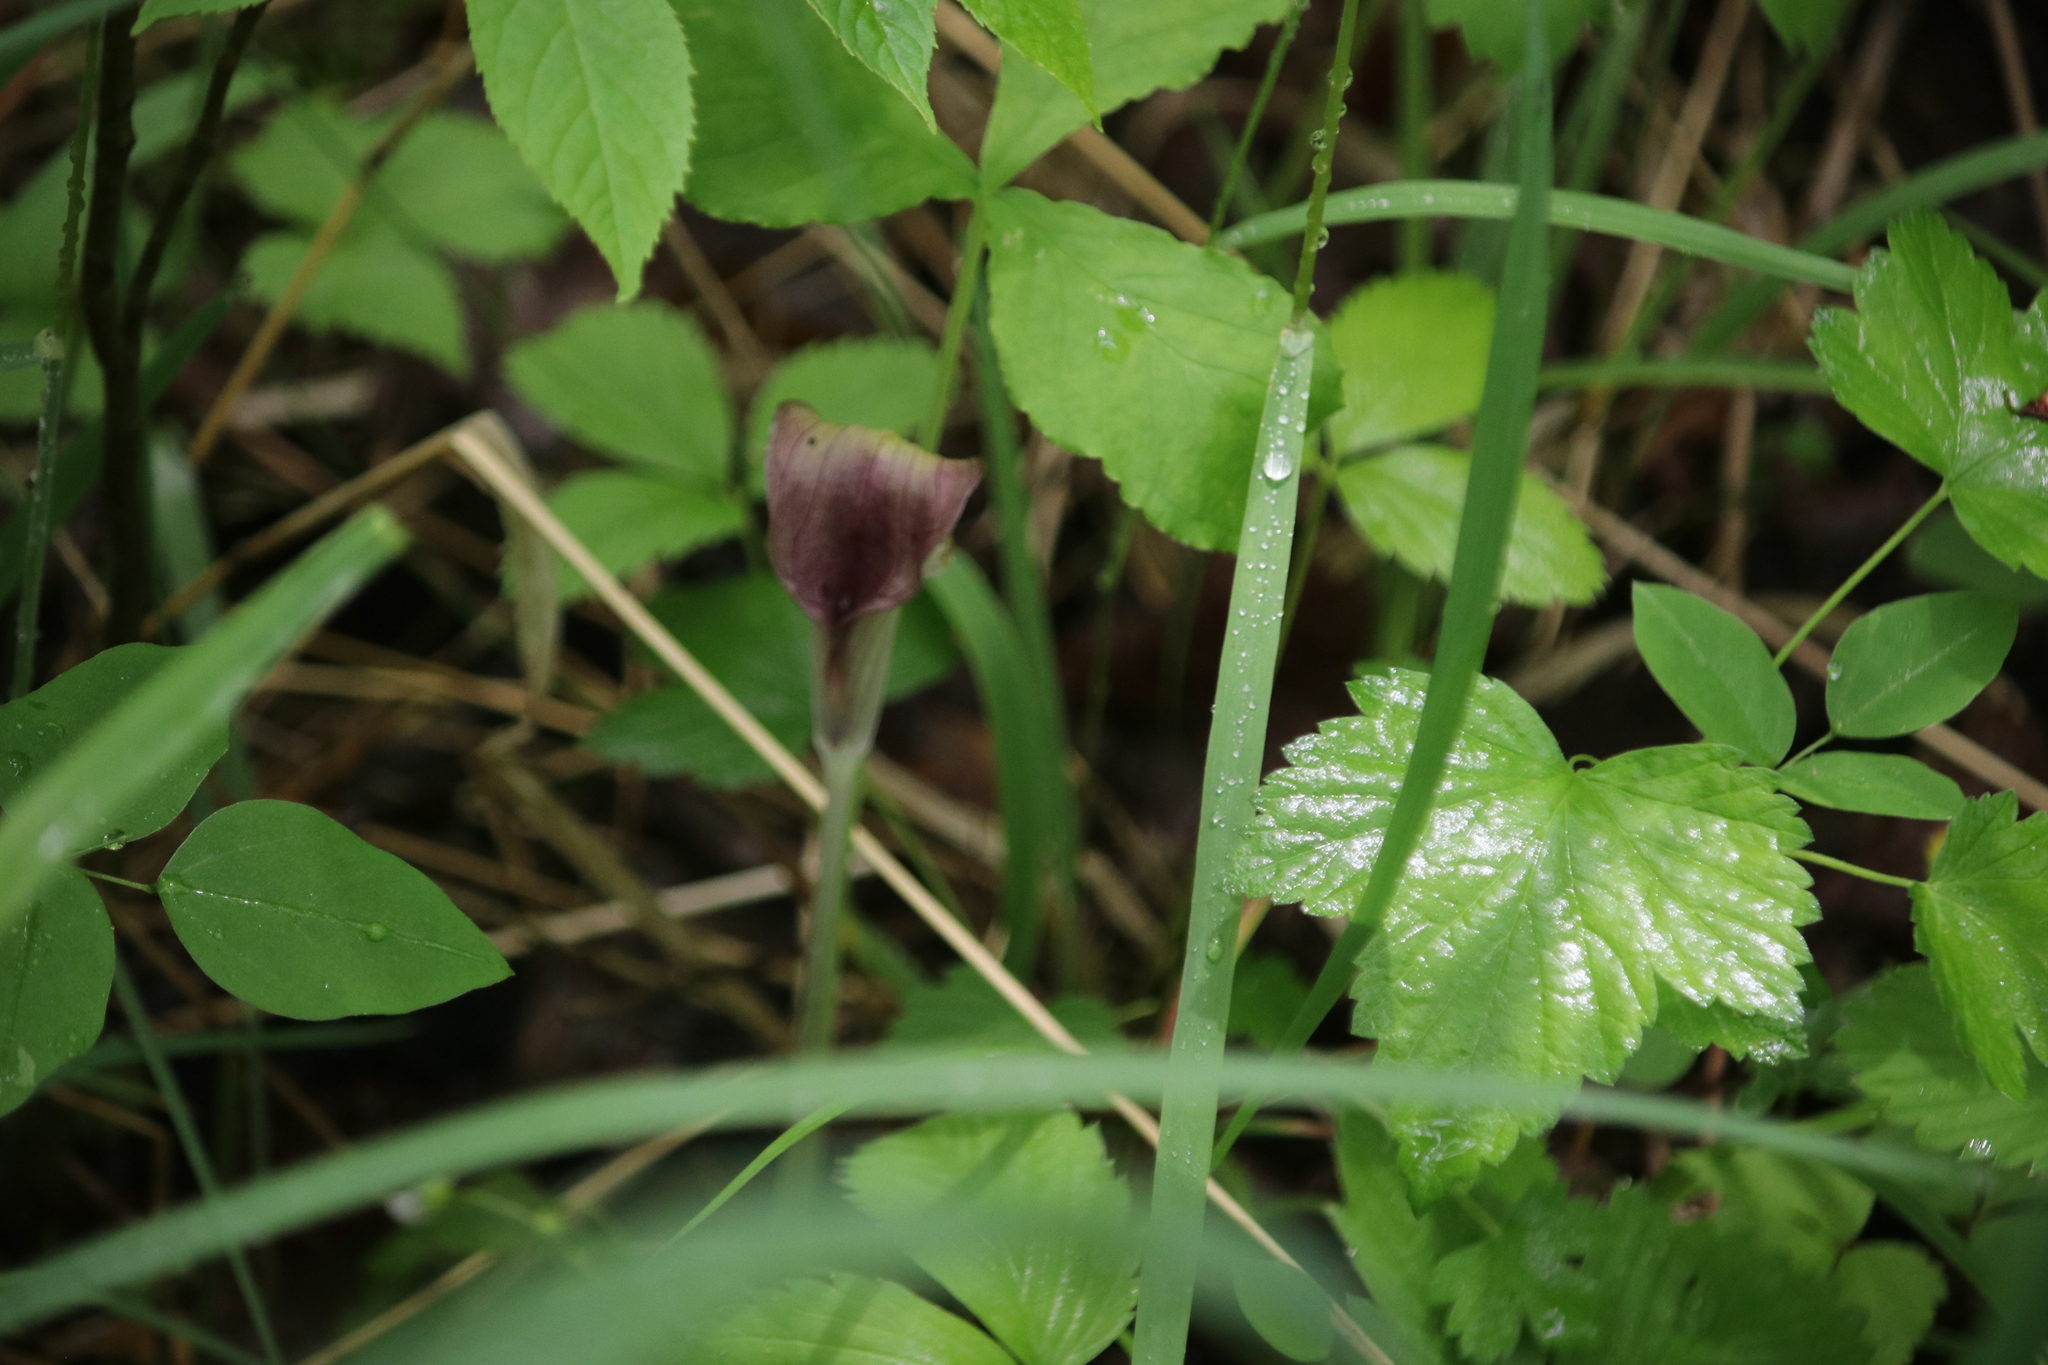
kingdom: Plantae
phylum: Tracheophyta
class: Liliopsida
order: Alismatales
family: Araceae
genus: Arisaema
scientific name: Arisaema triphyllum
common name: Jack-in-the-pulpit
